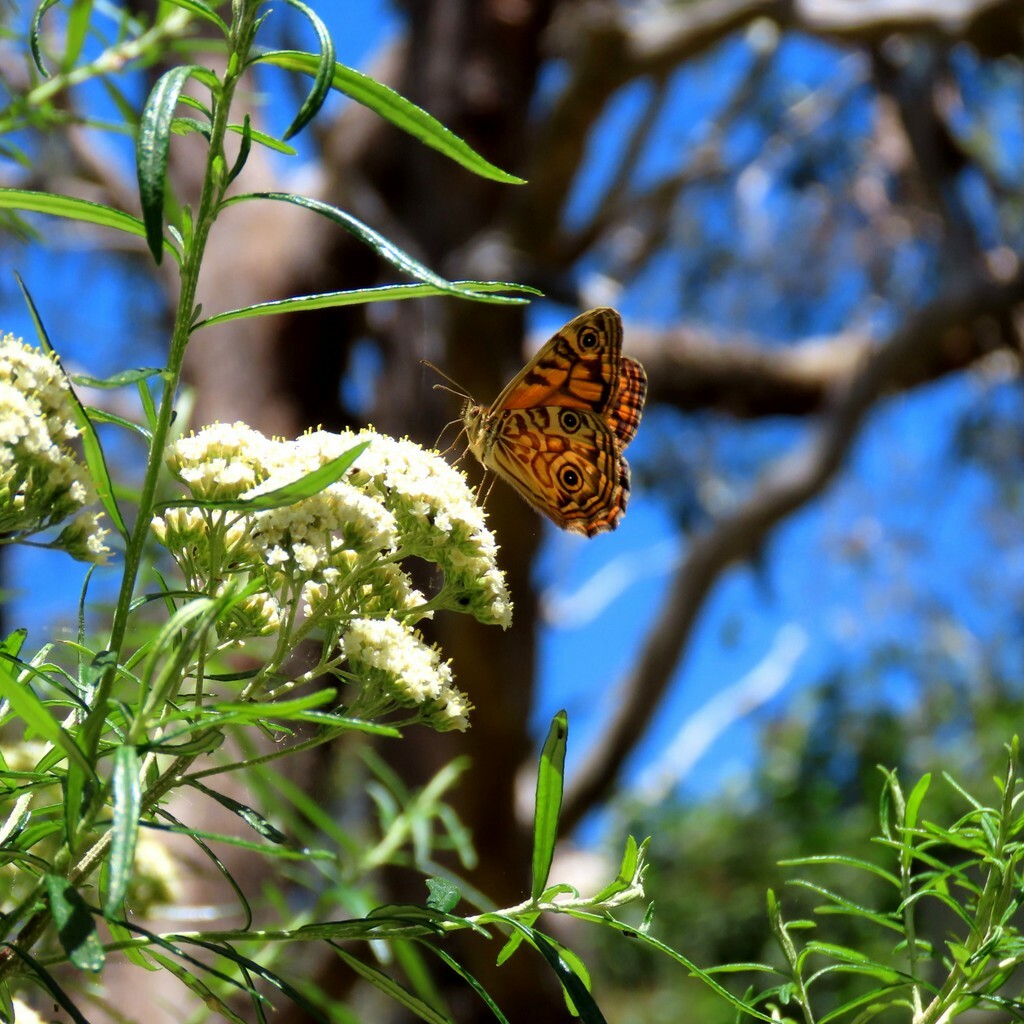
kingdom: Animalia
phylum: Arthropoda
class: Insecta
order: Lepidoptera
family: Nymphalidae
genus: Geitoneura
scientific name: Geitoneura acantha
